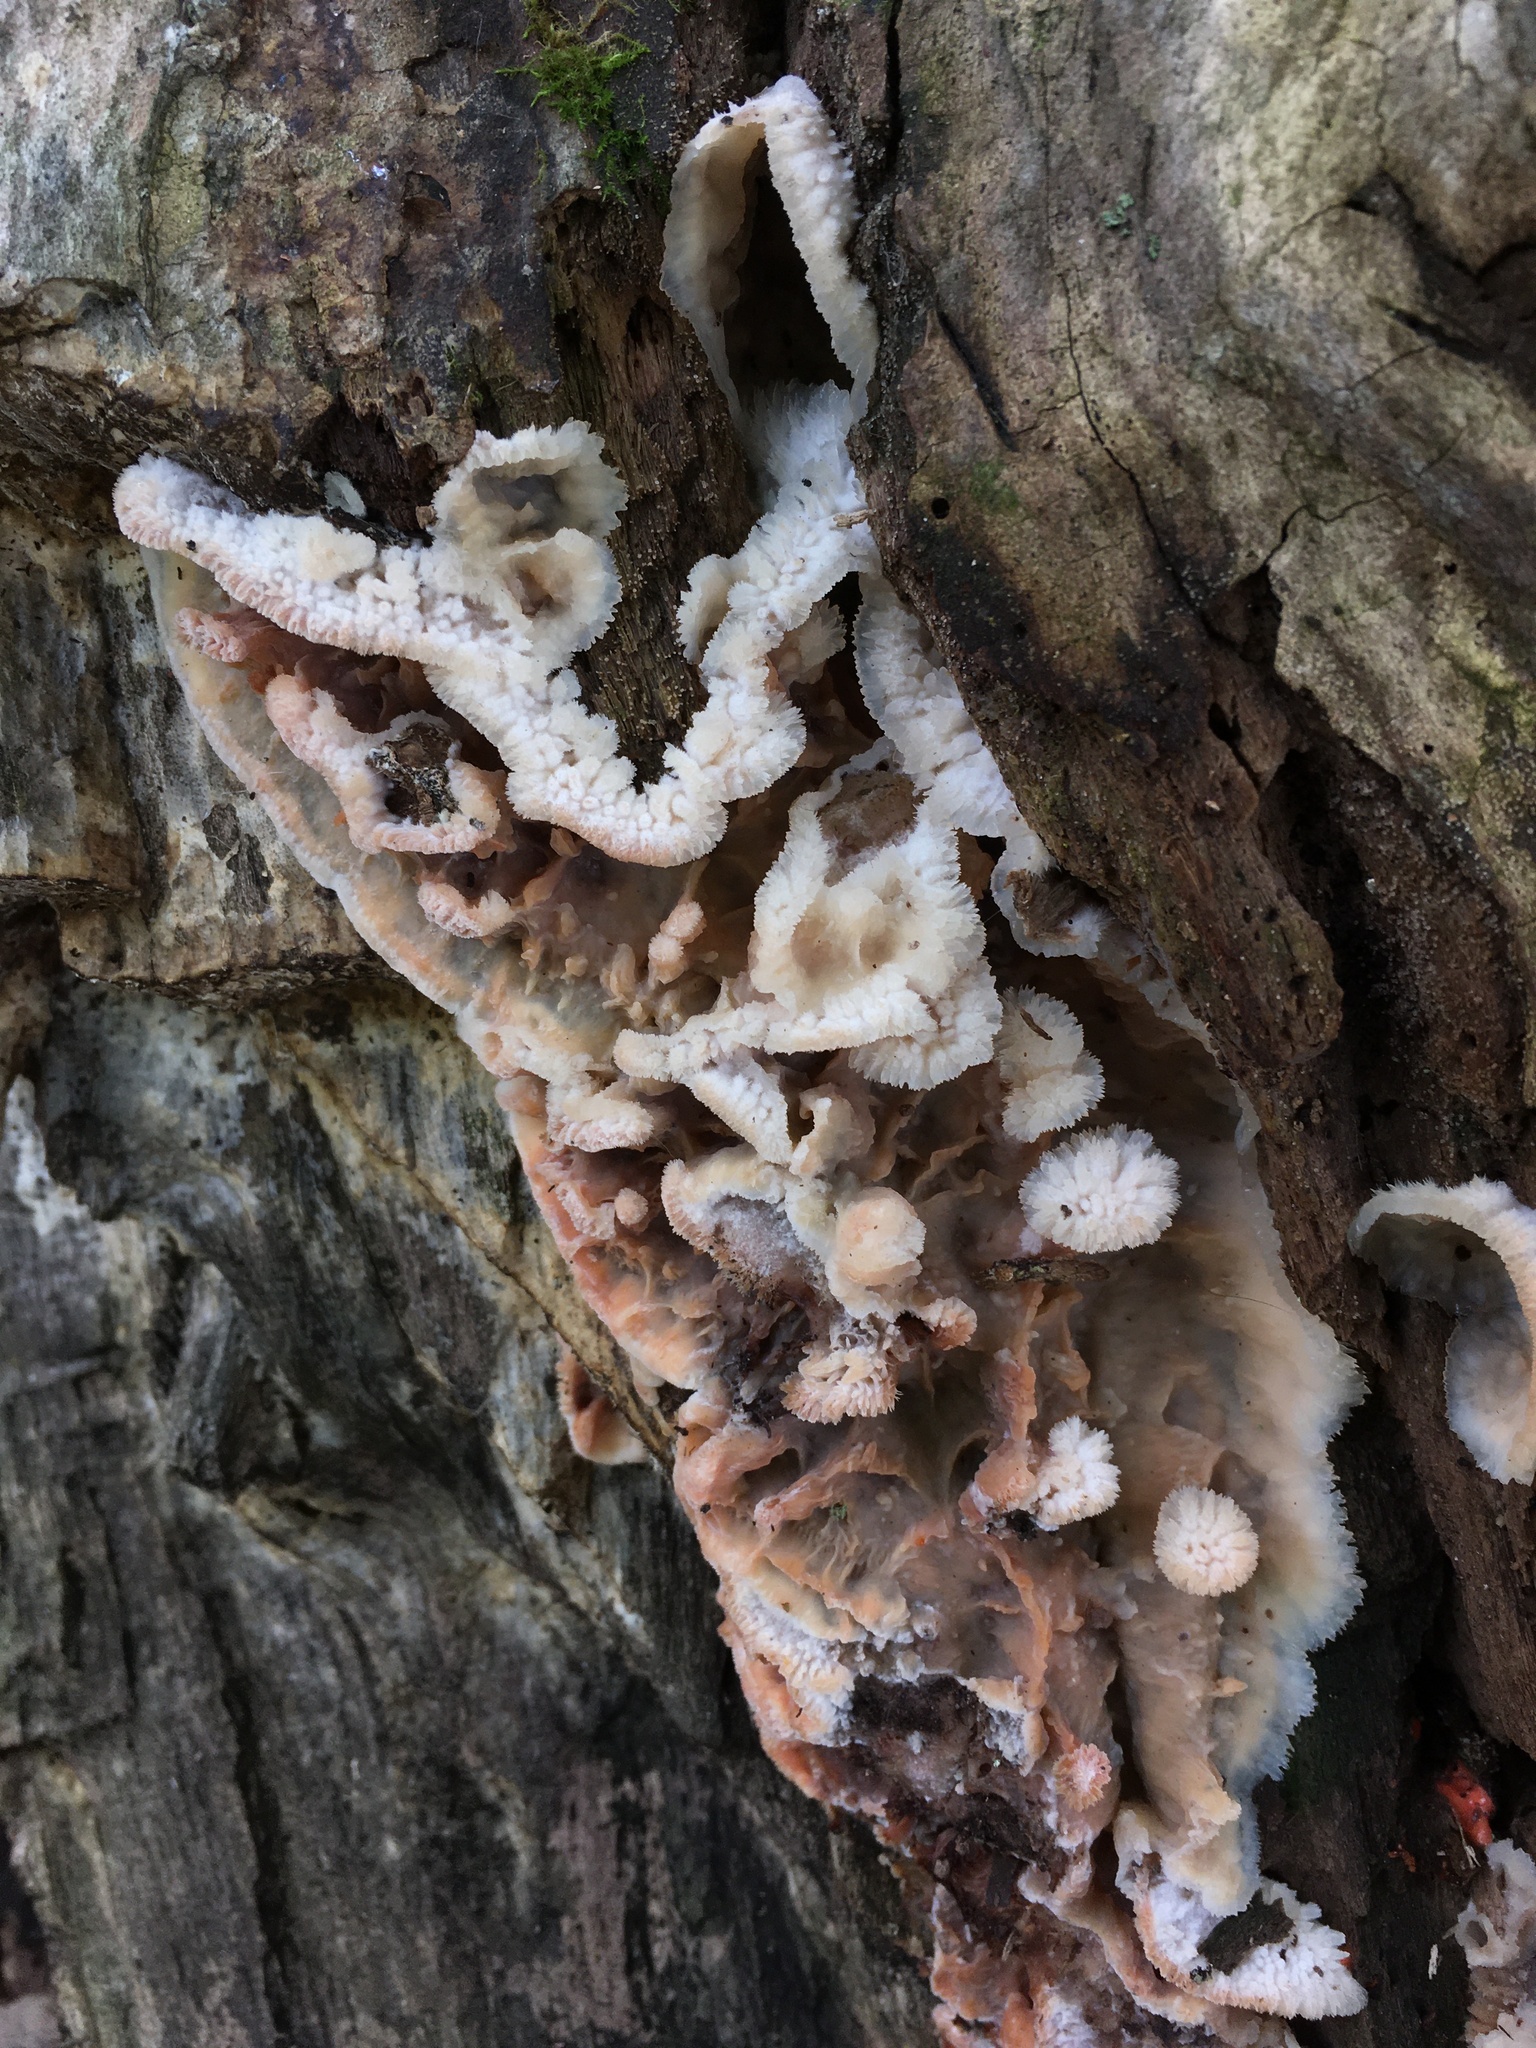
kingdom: Fungi
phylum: Basidiomycota
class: Agaricomycetes
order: Polyporales
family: Meruliaceae
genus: Phlebia
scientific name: Phlebia tremellosa
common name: Jelly rot
